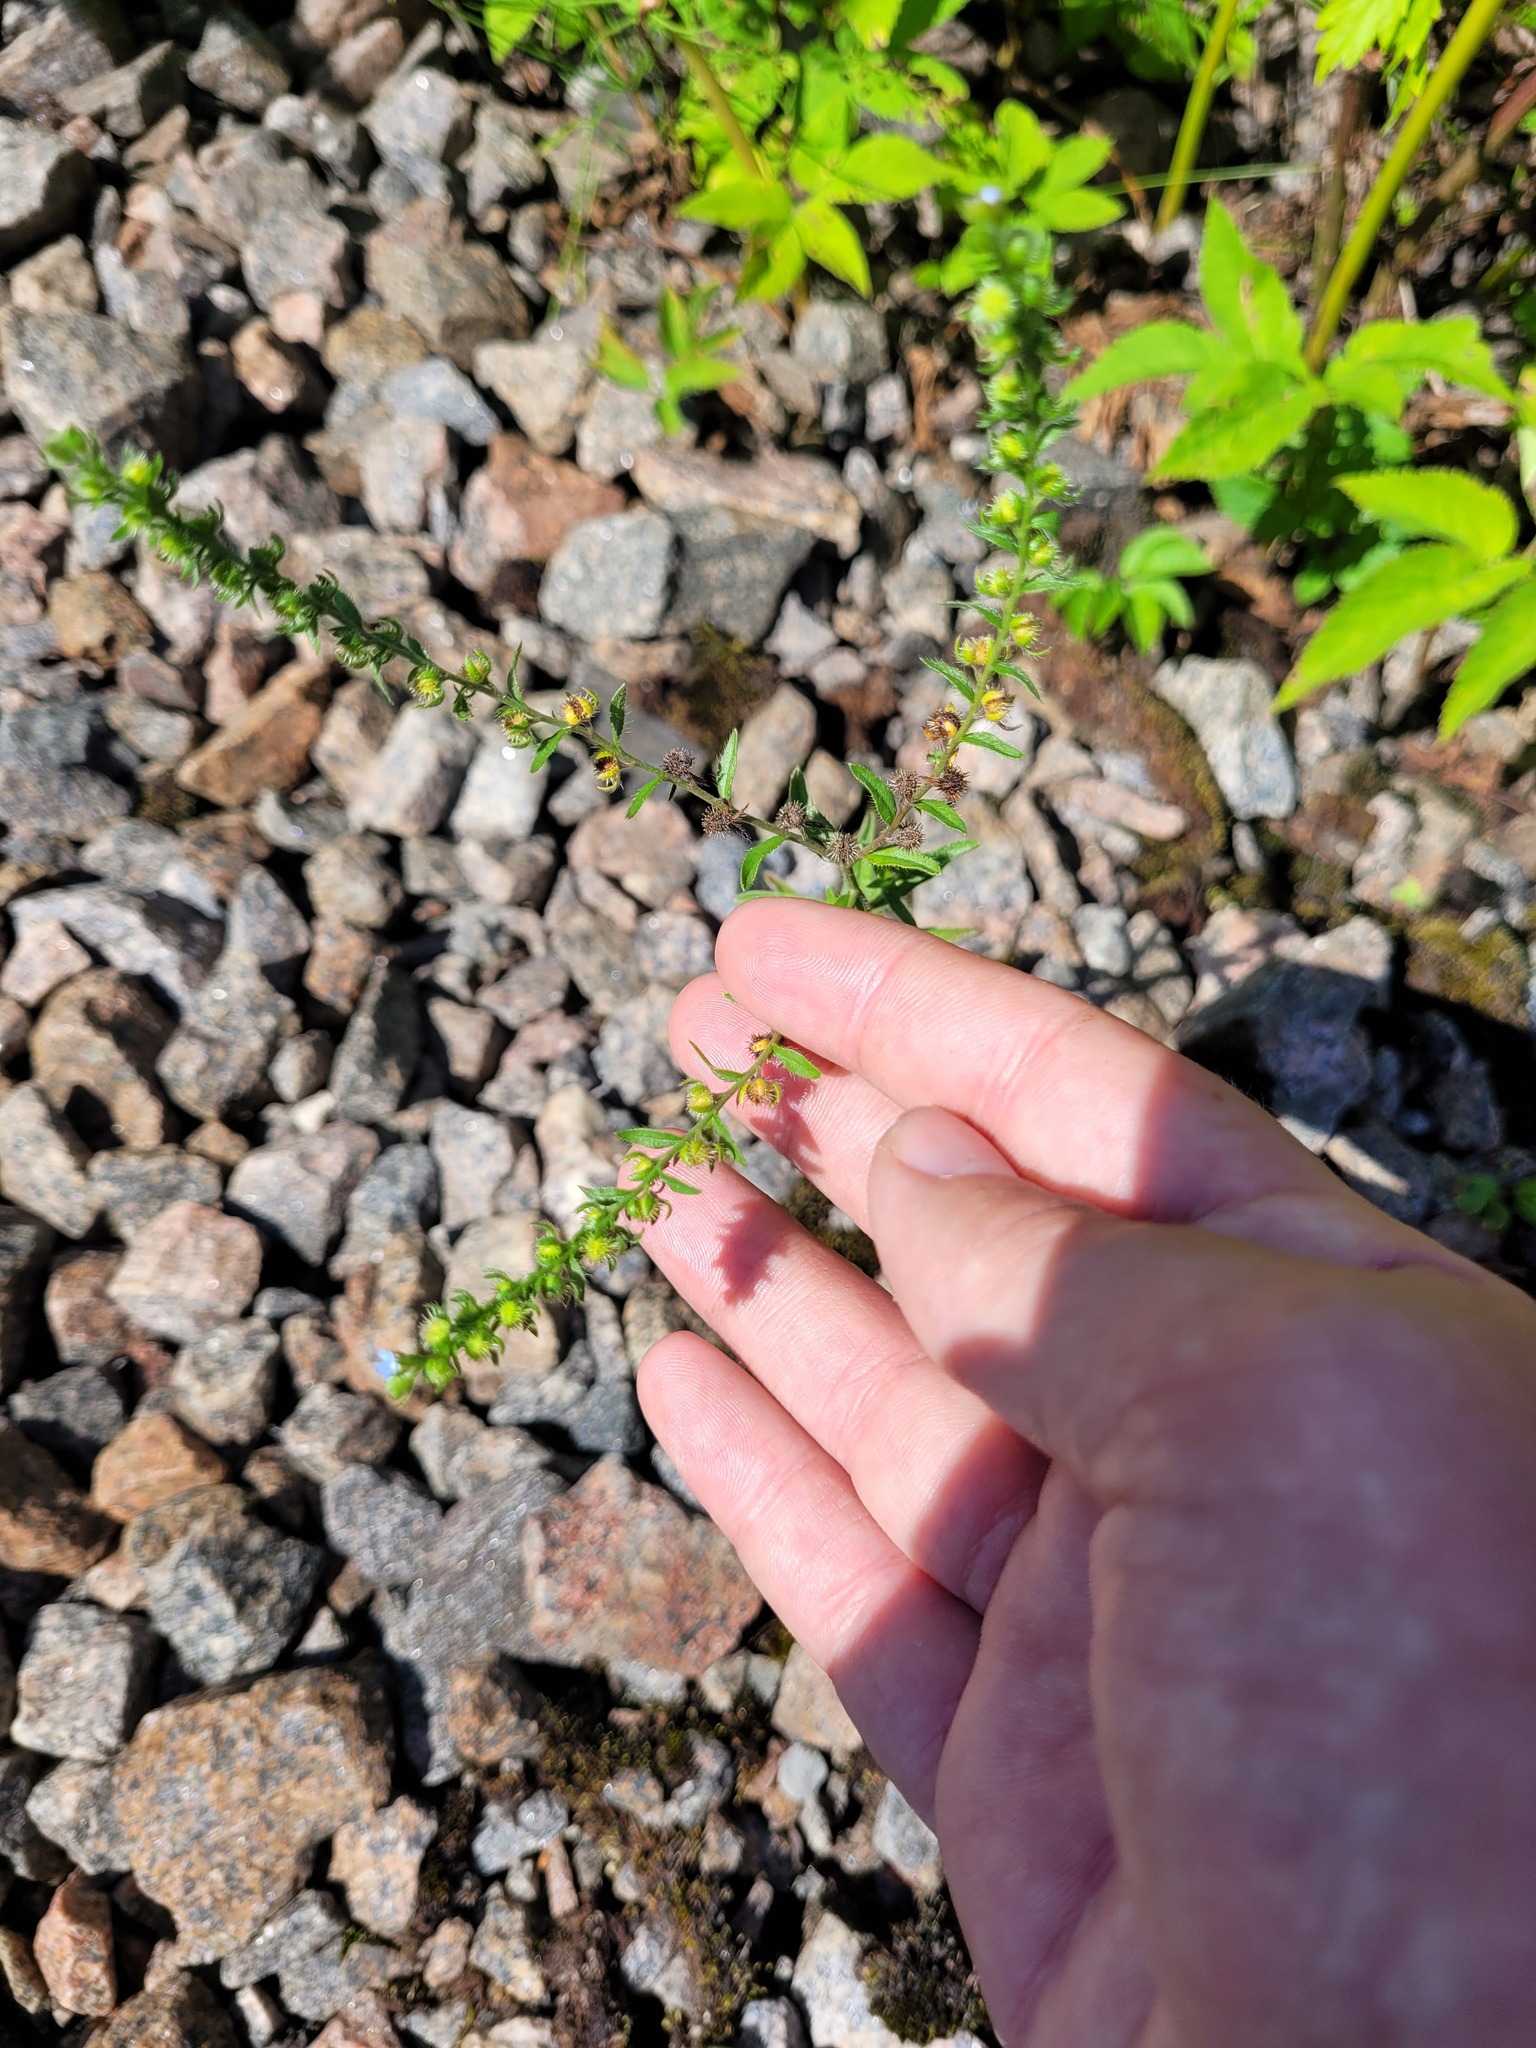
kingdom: Plantae
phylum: Tracheophyta
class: Magnoliopsida
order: Boraginales
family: Boraginaceae
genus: Lappula
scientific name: Lappula squarrosa
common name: European stickseed
